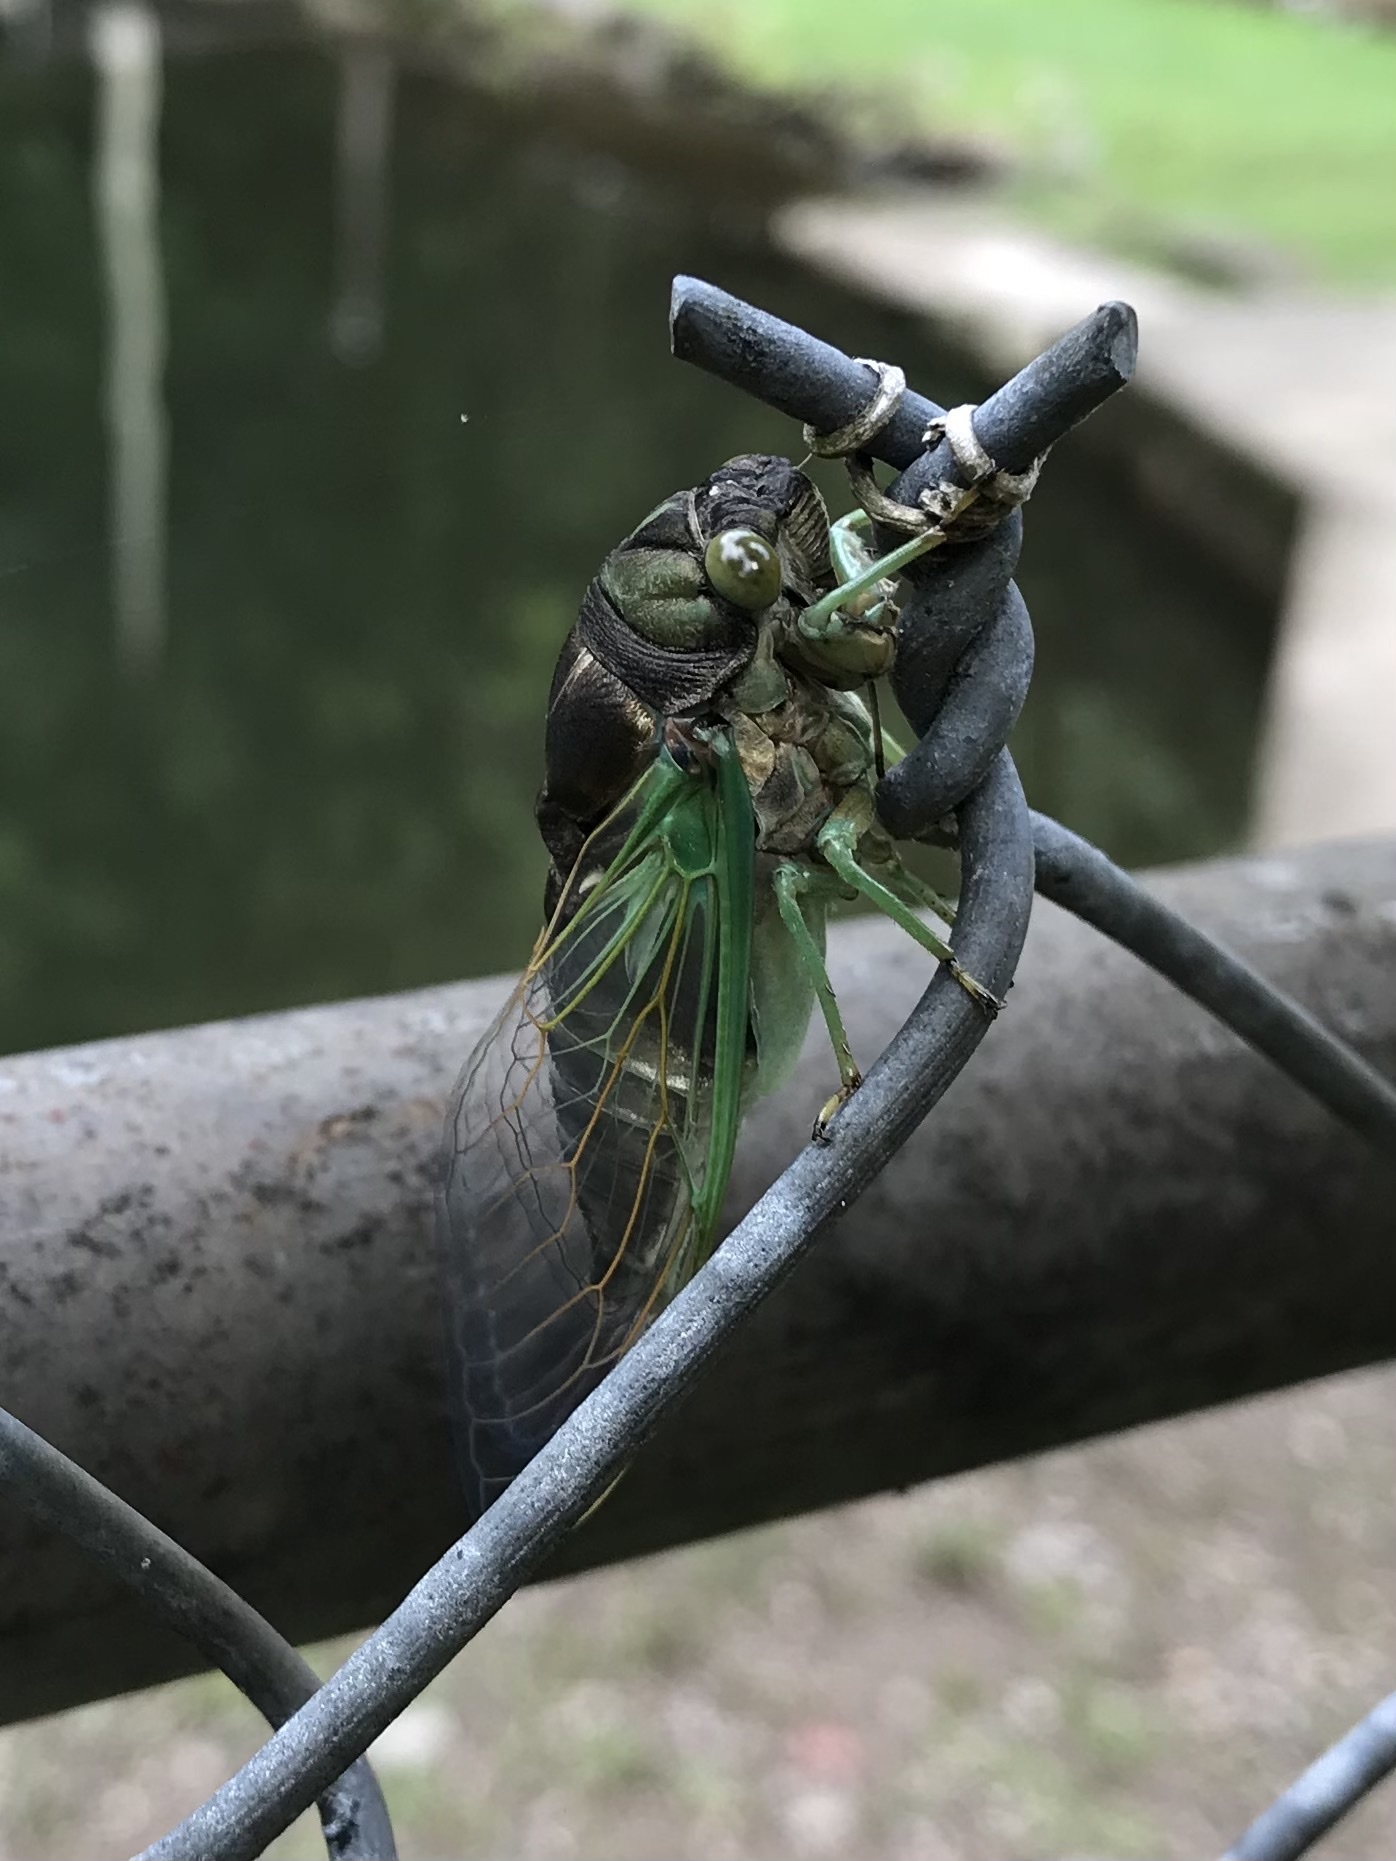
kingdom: Animalia
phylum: Arthropoda
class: Insecta
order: Hemiptera
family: Cicadidae
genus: Neotibicen
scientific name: Neotibicen tibicen
